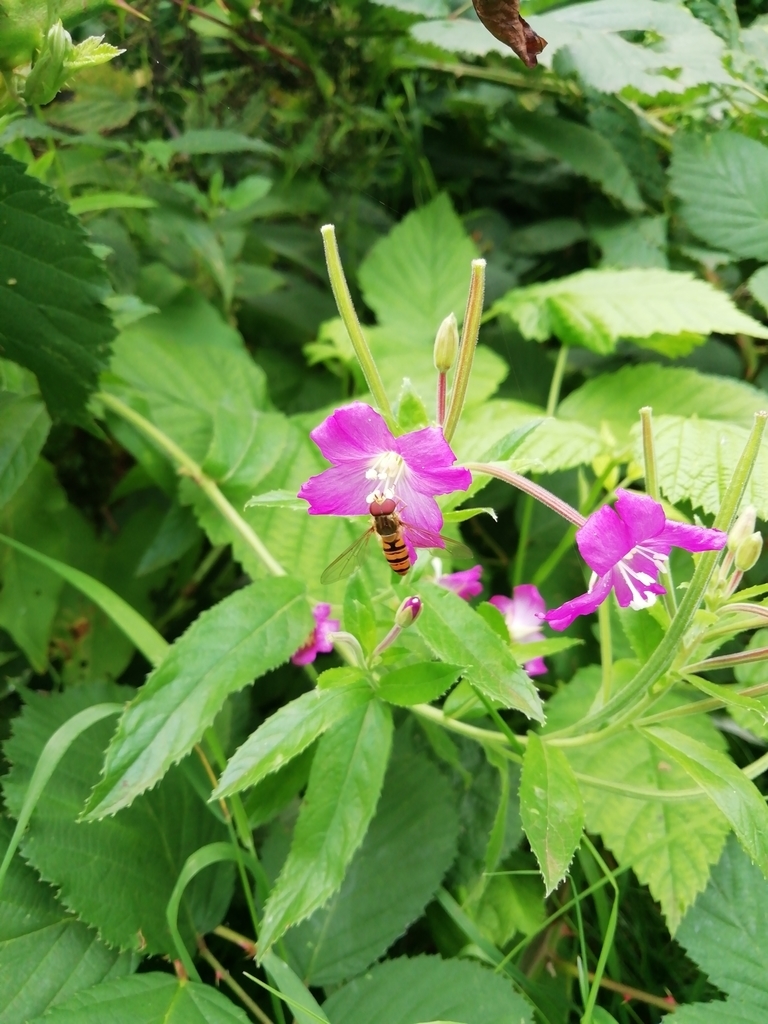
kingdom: Animalia
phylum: Arthropoda
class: Insecta
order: Diptera
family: Syrphidae
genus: Episyrphus
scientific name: Episyrphus balteatus
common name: Marmalade hoverfly
